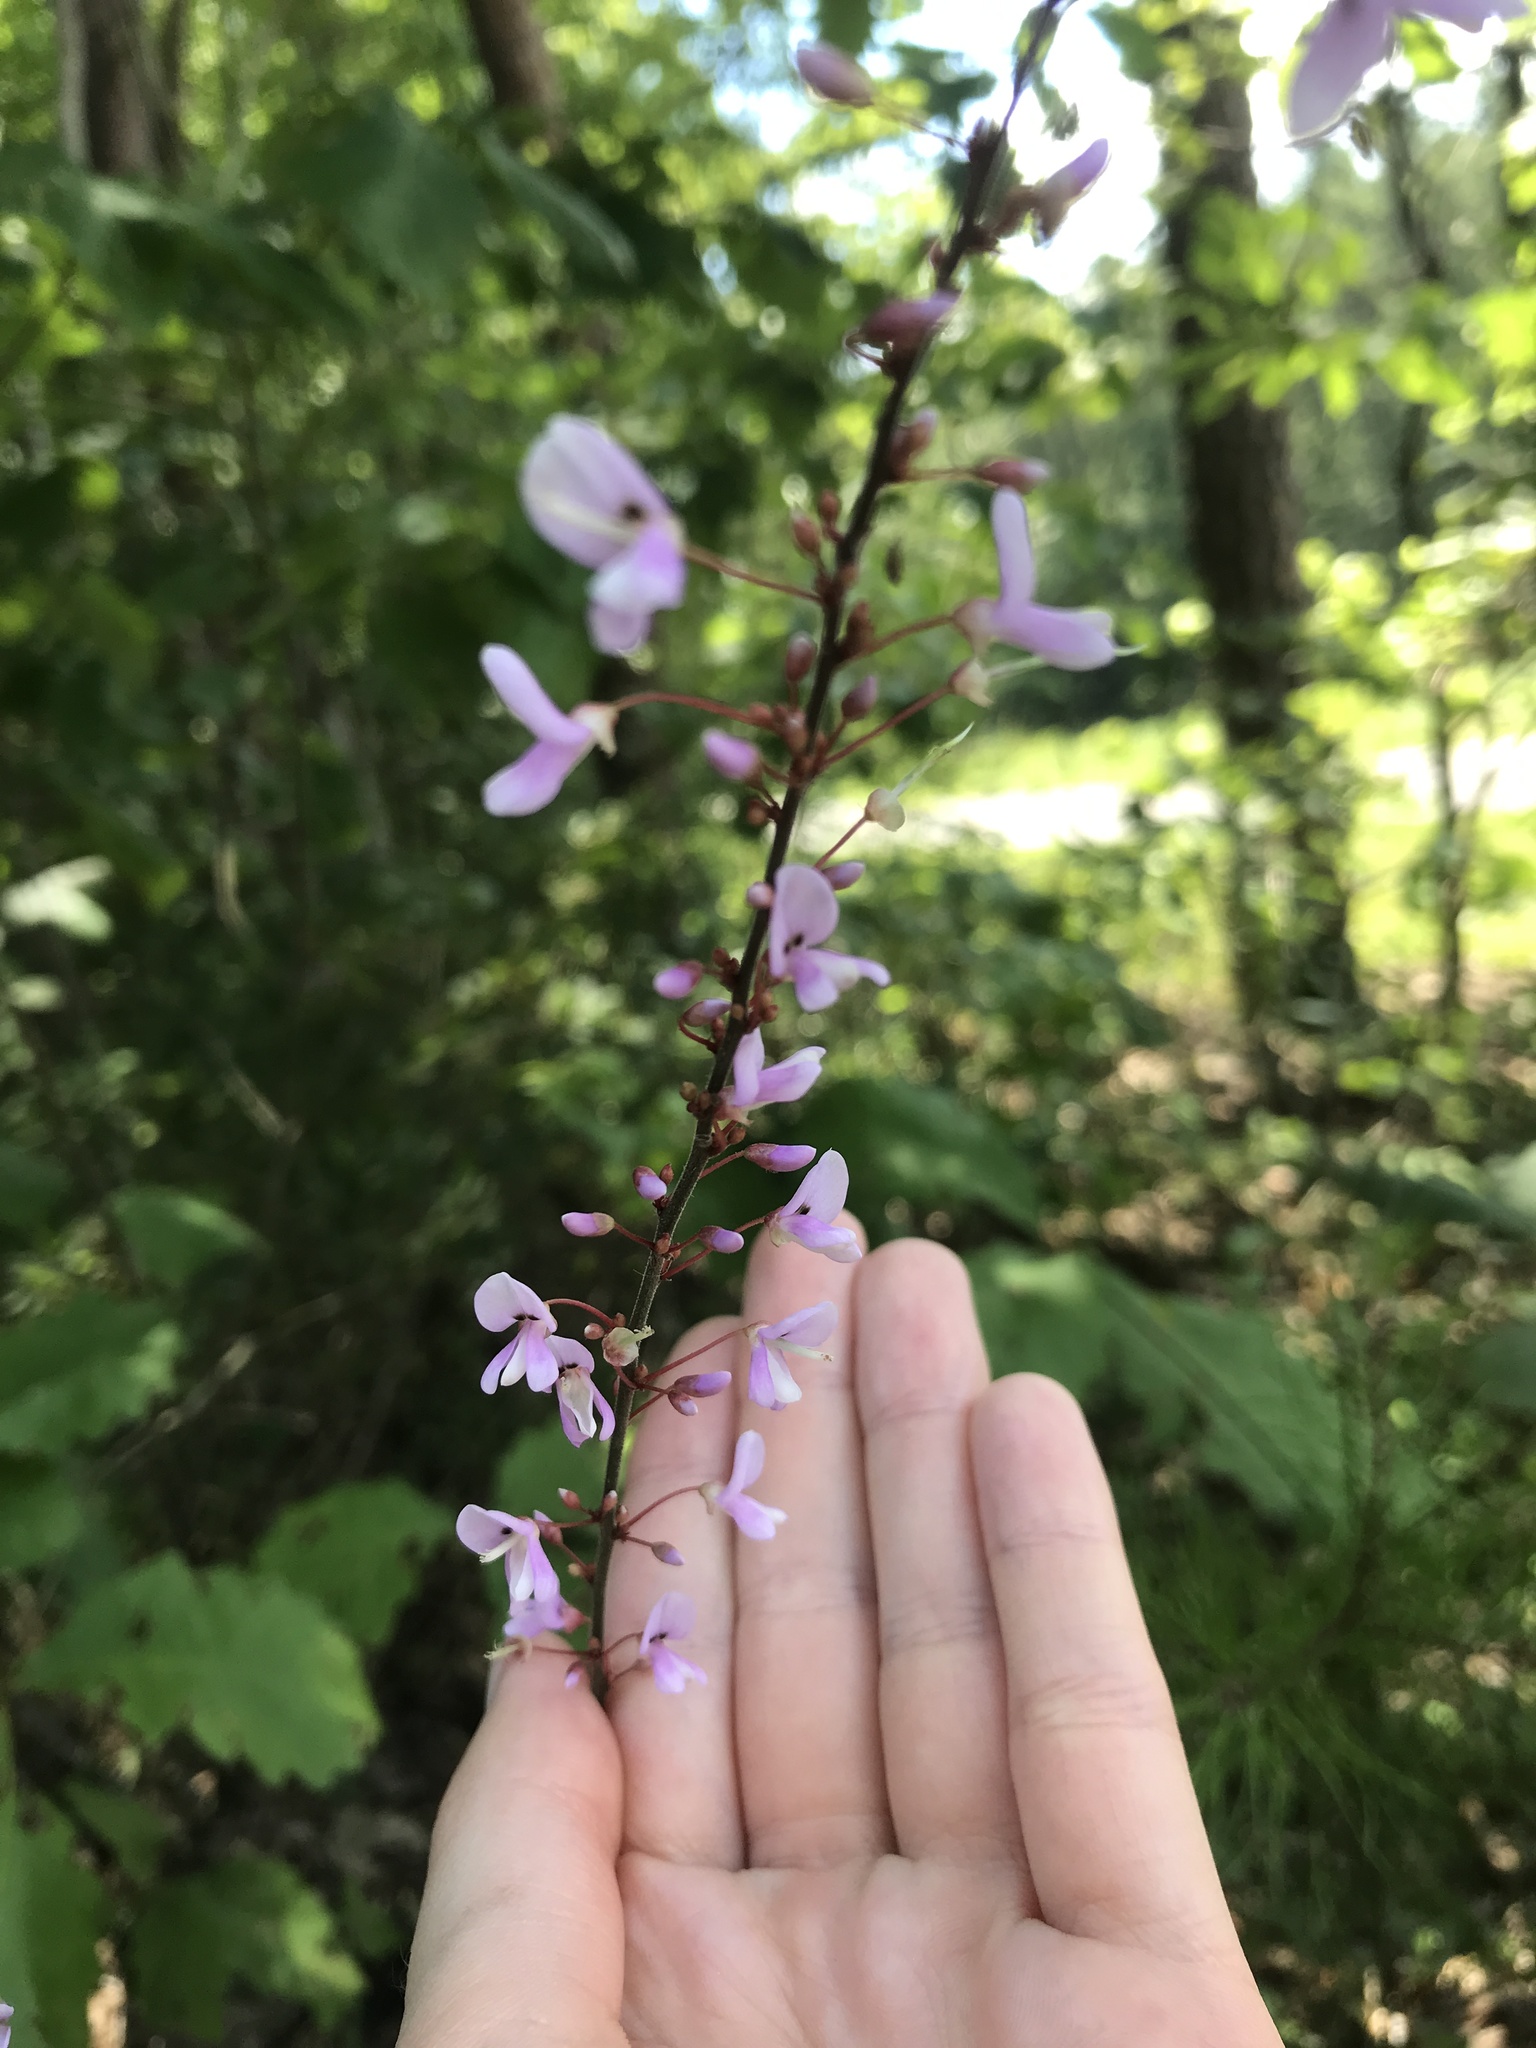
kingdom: Plantae
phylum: Tracheophyta
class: Magnoliopsida
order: Fabales
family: Fabaceae
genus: Hylodesmum
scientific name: Hylodesmum nudiflorum
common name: Bare-stemmed tick-trefoil
